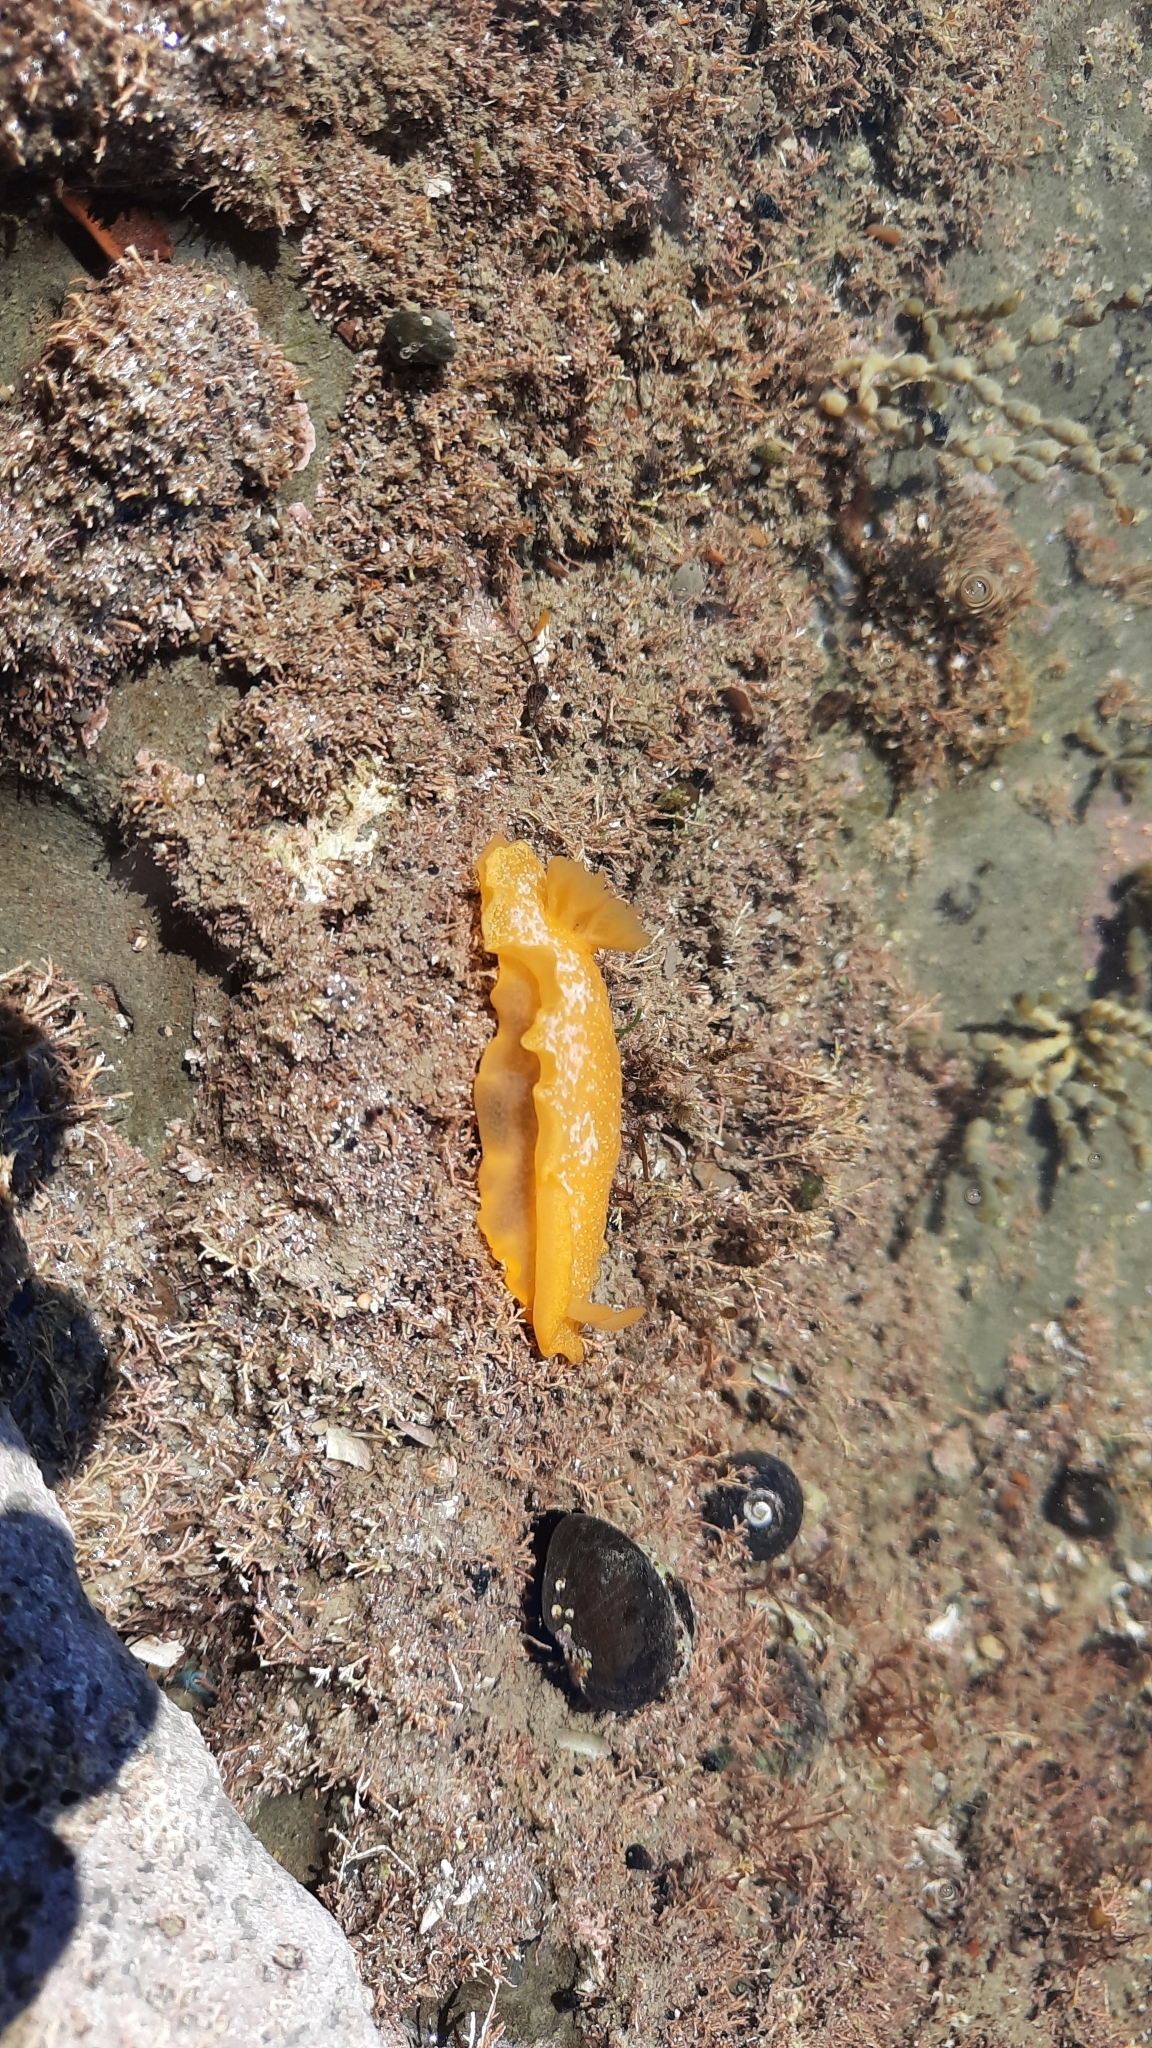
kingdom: Animalia
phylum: Mollusca
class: Gastropoda
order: Nudibranchia
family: Dendrodorididae
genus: Dendrodoris
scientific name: Dendrodoris citrina
